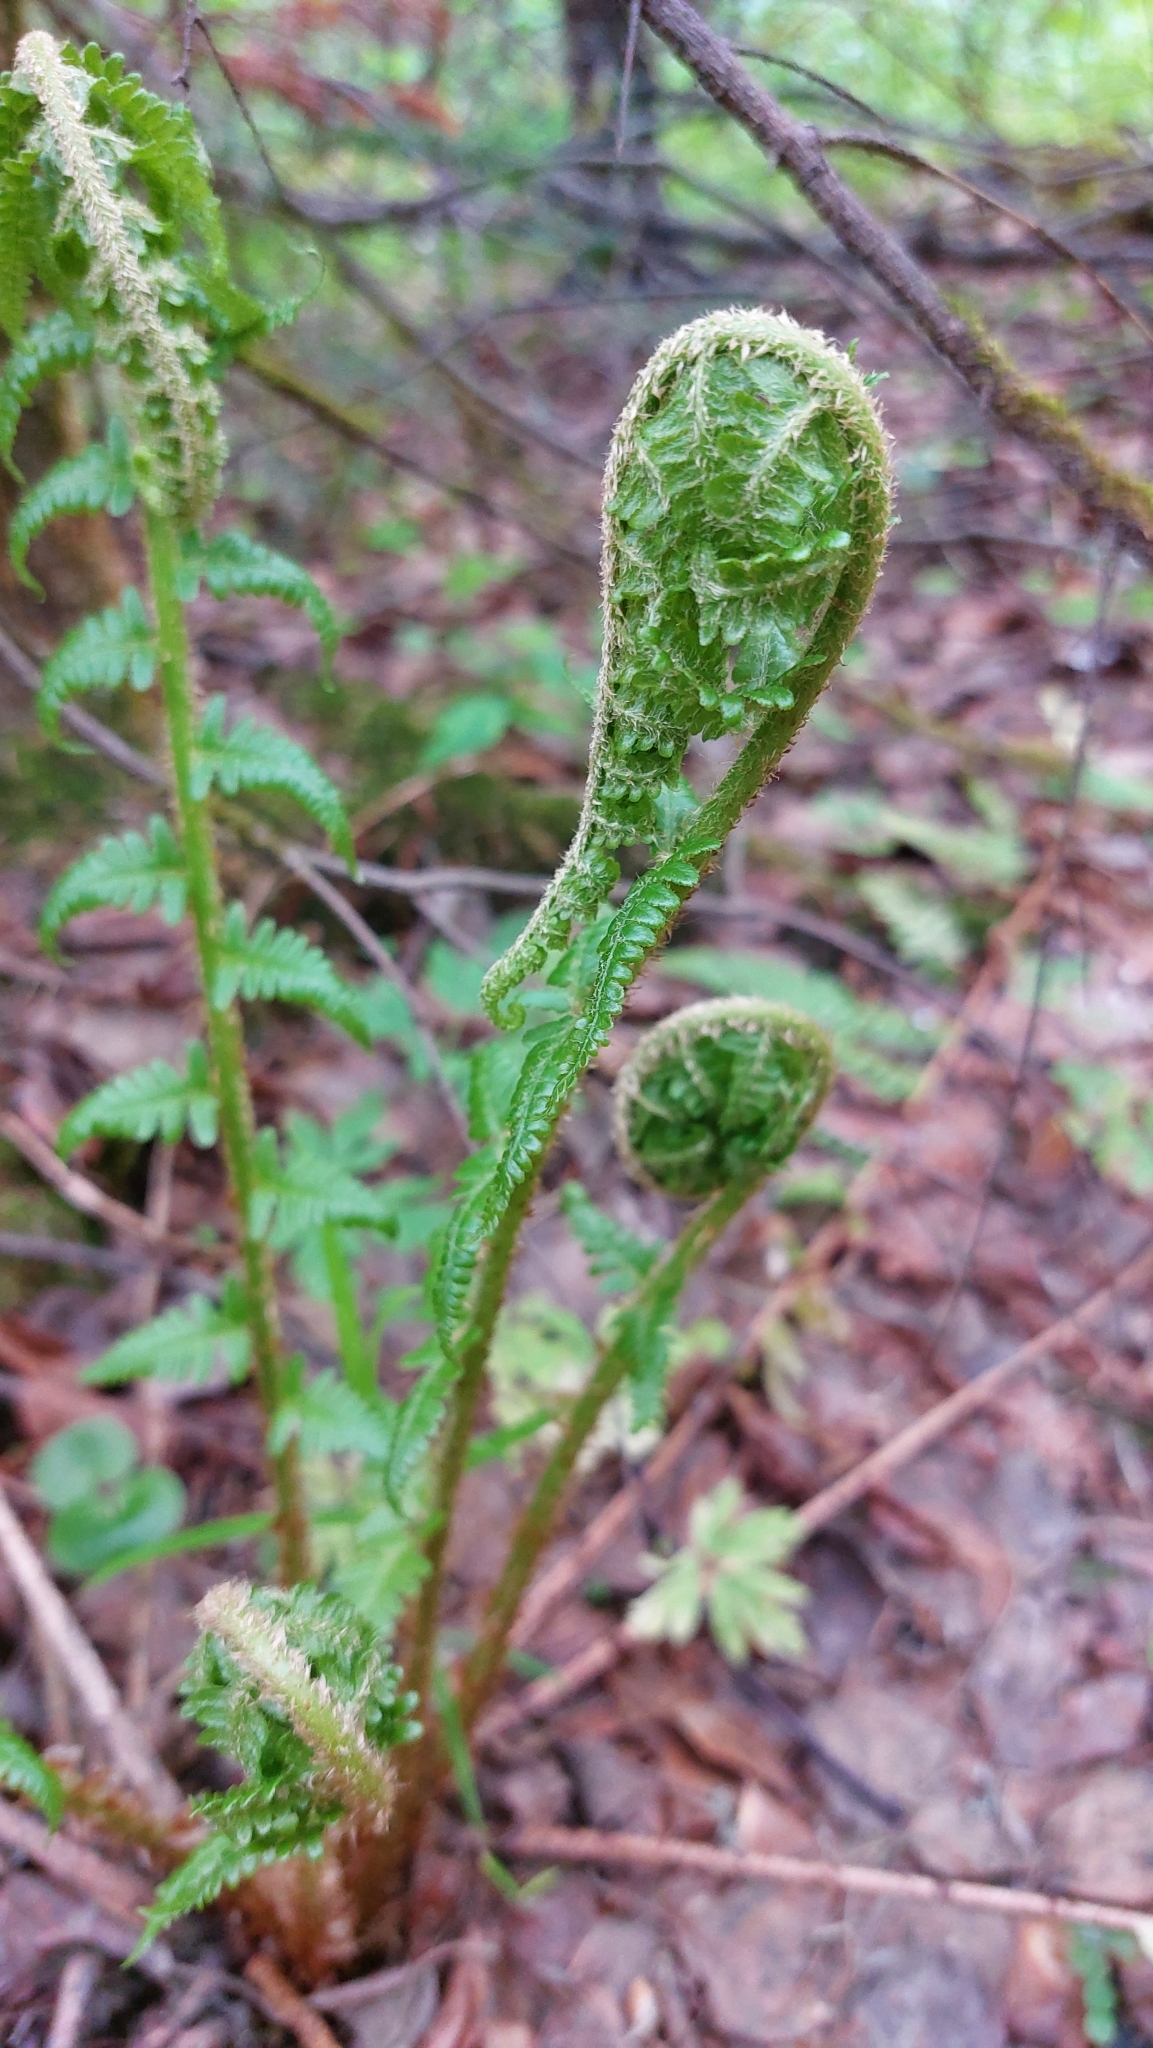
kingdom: Plantae
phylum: Tracheophyta
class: Polypodiopsida
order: Polypodiales
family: Dryopteridaceae
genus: Dryopteris
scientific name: Dryopteris filix-mas
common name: Male fern
